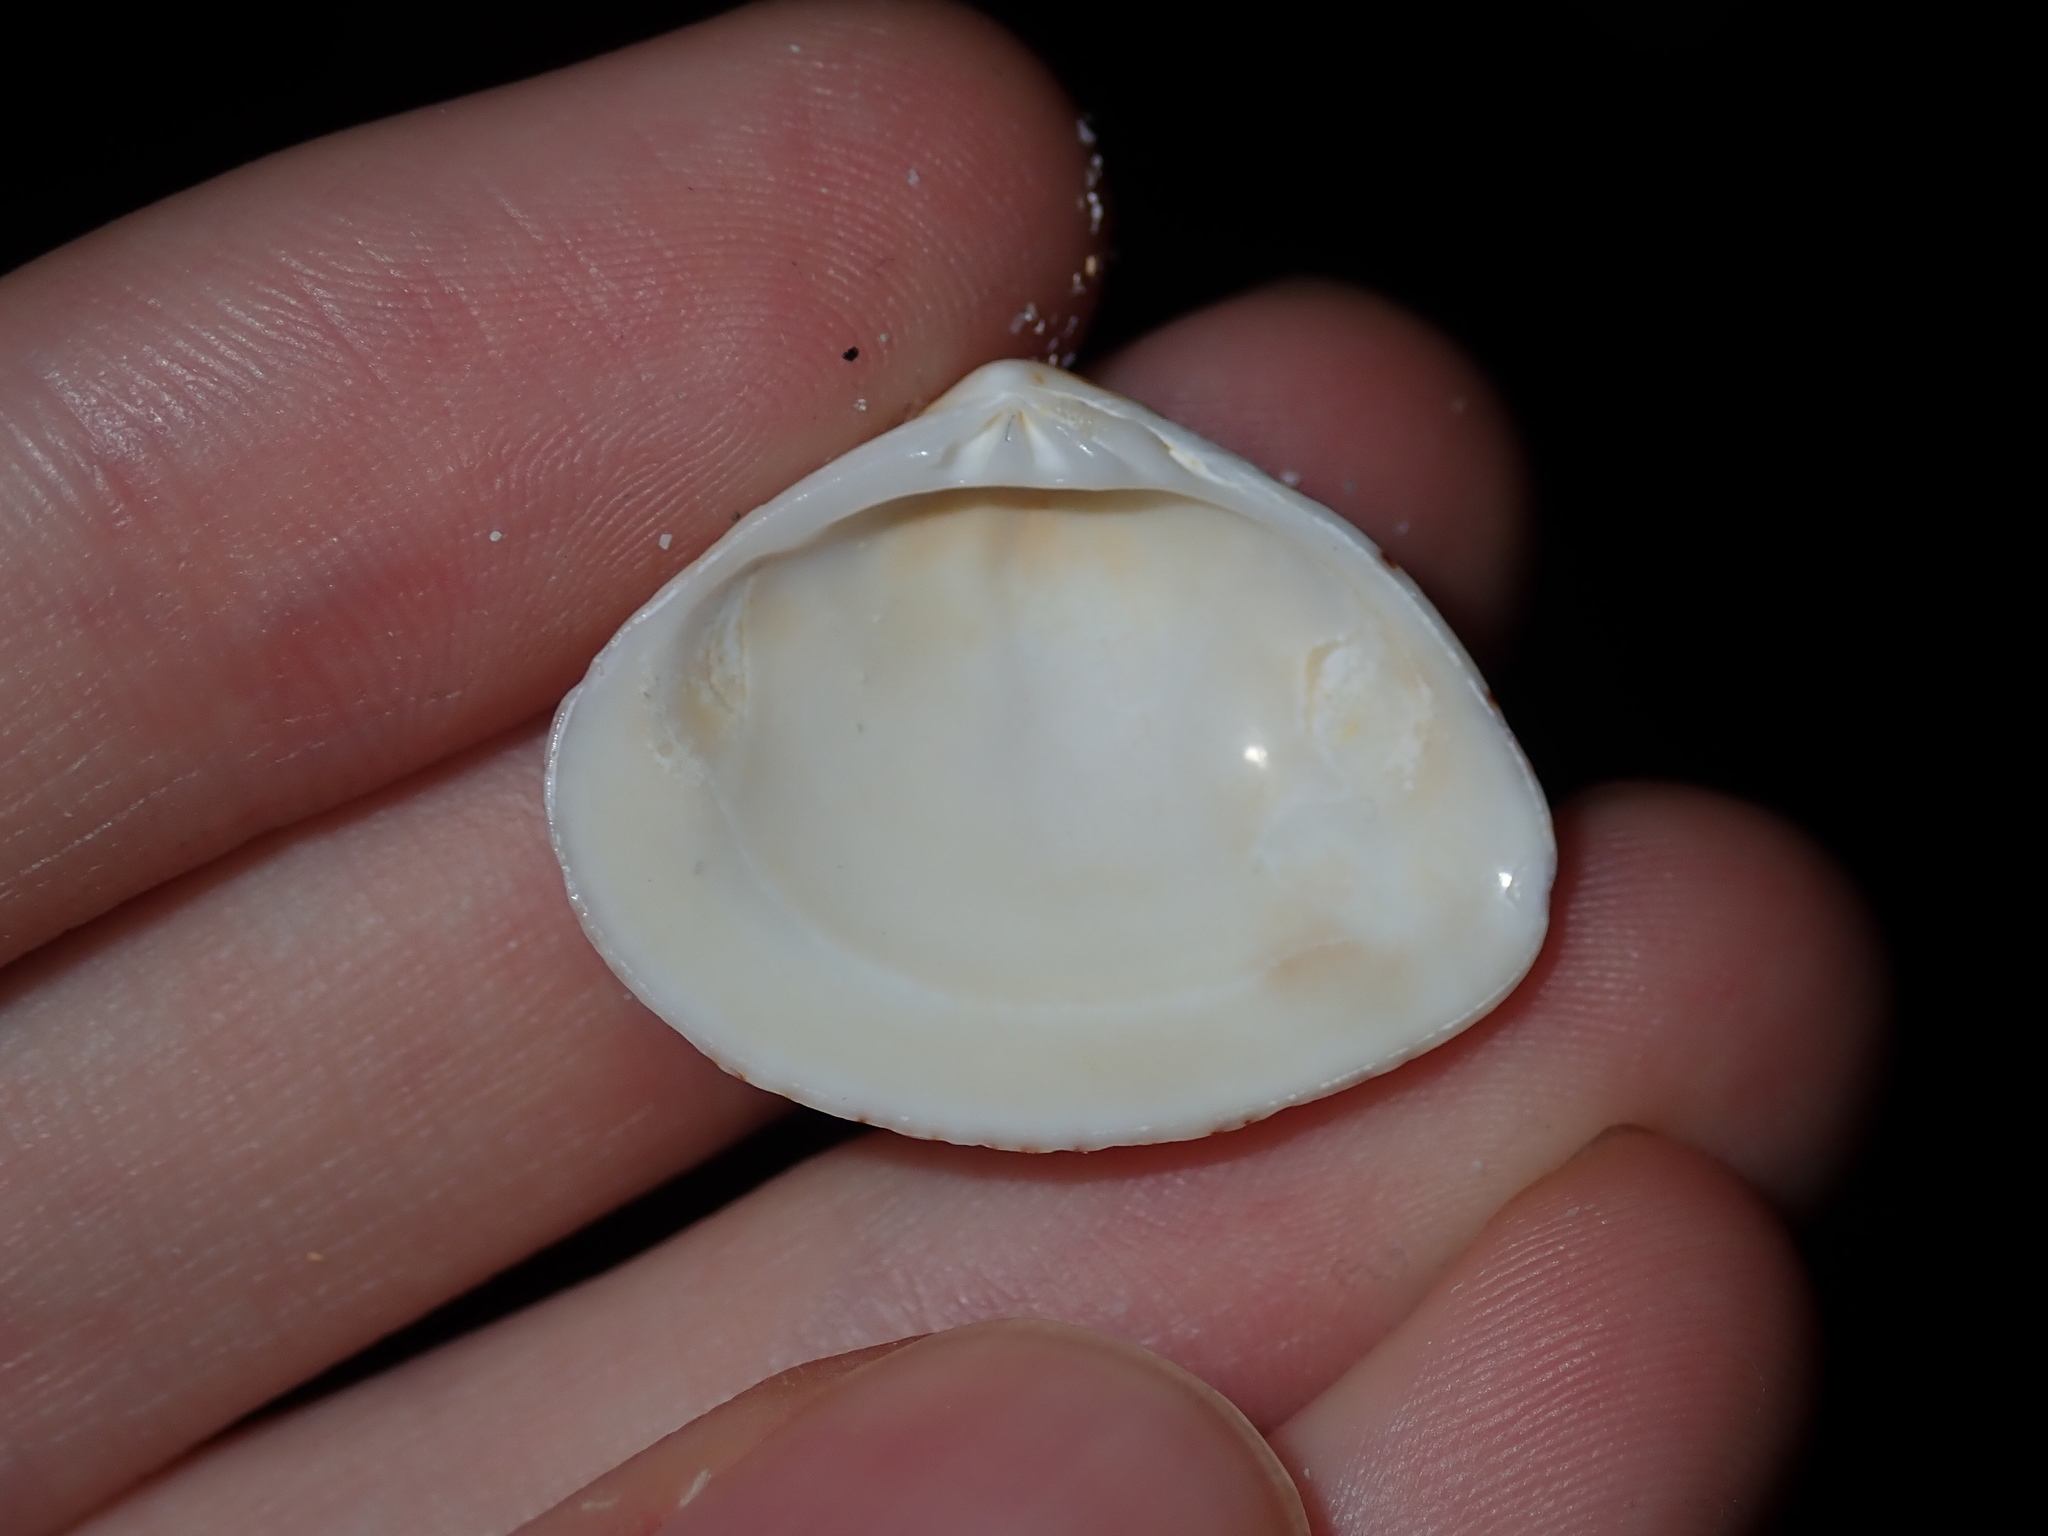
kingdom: Animalia
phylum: Mollusca
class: Bivalvia
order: Venerida
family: Veneridae
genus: Gomphina
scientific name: Gomphina undulosa
